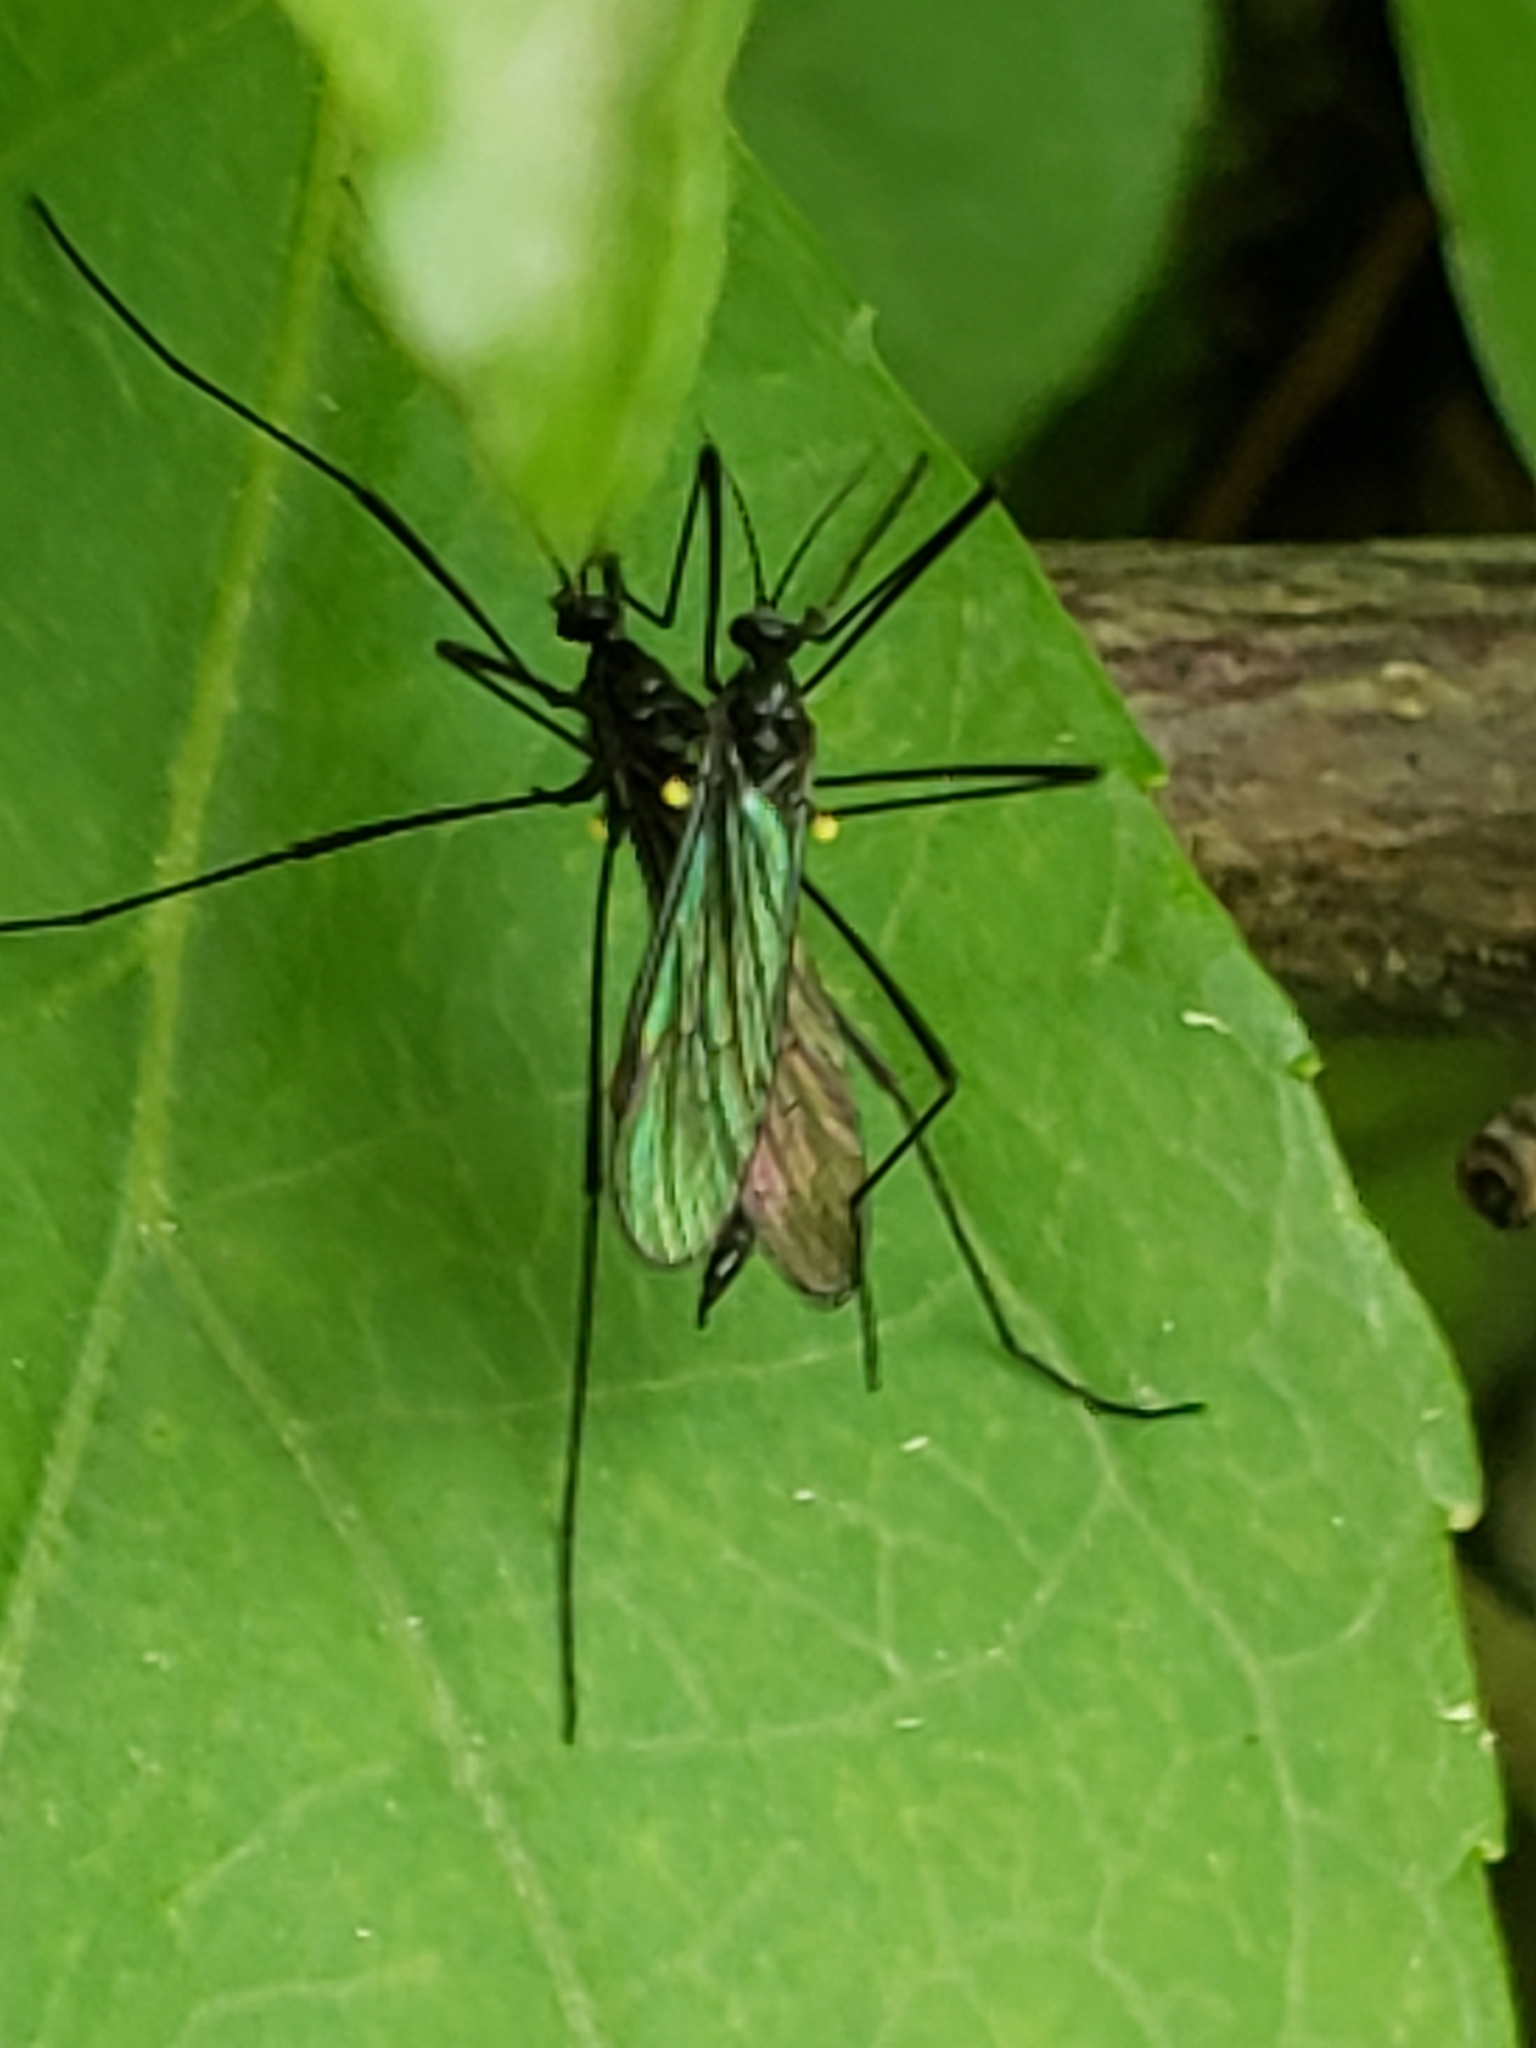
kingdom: Animalia
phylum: Arthropoda
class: Insecta
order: Diptera
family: Limoniidae
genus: Gnophomyia
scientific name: Gnophomyia tristissima
